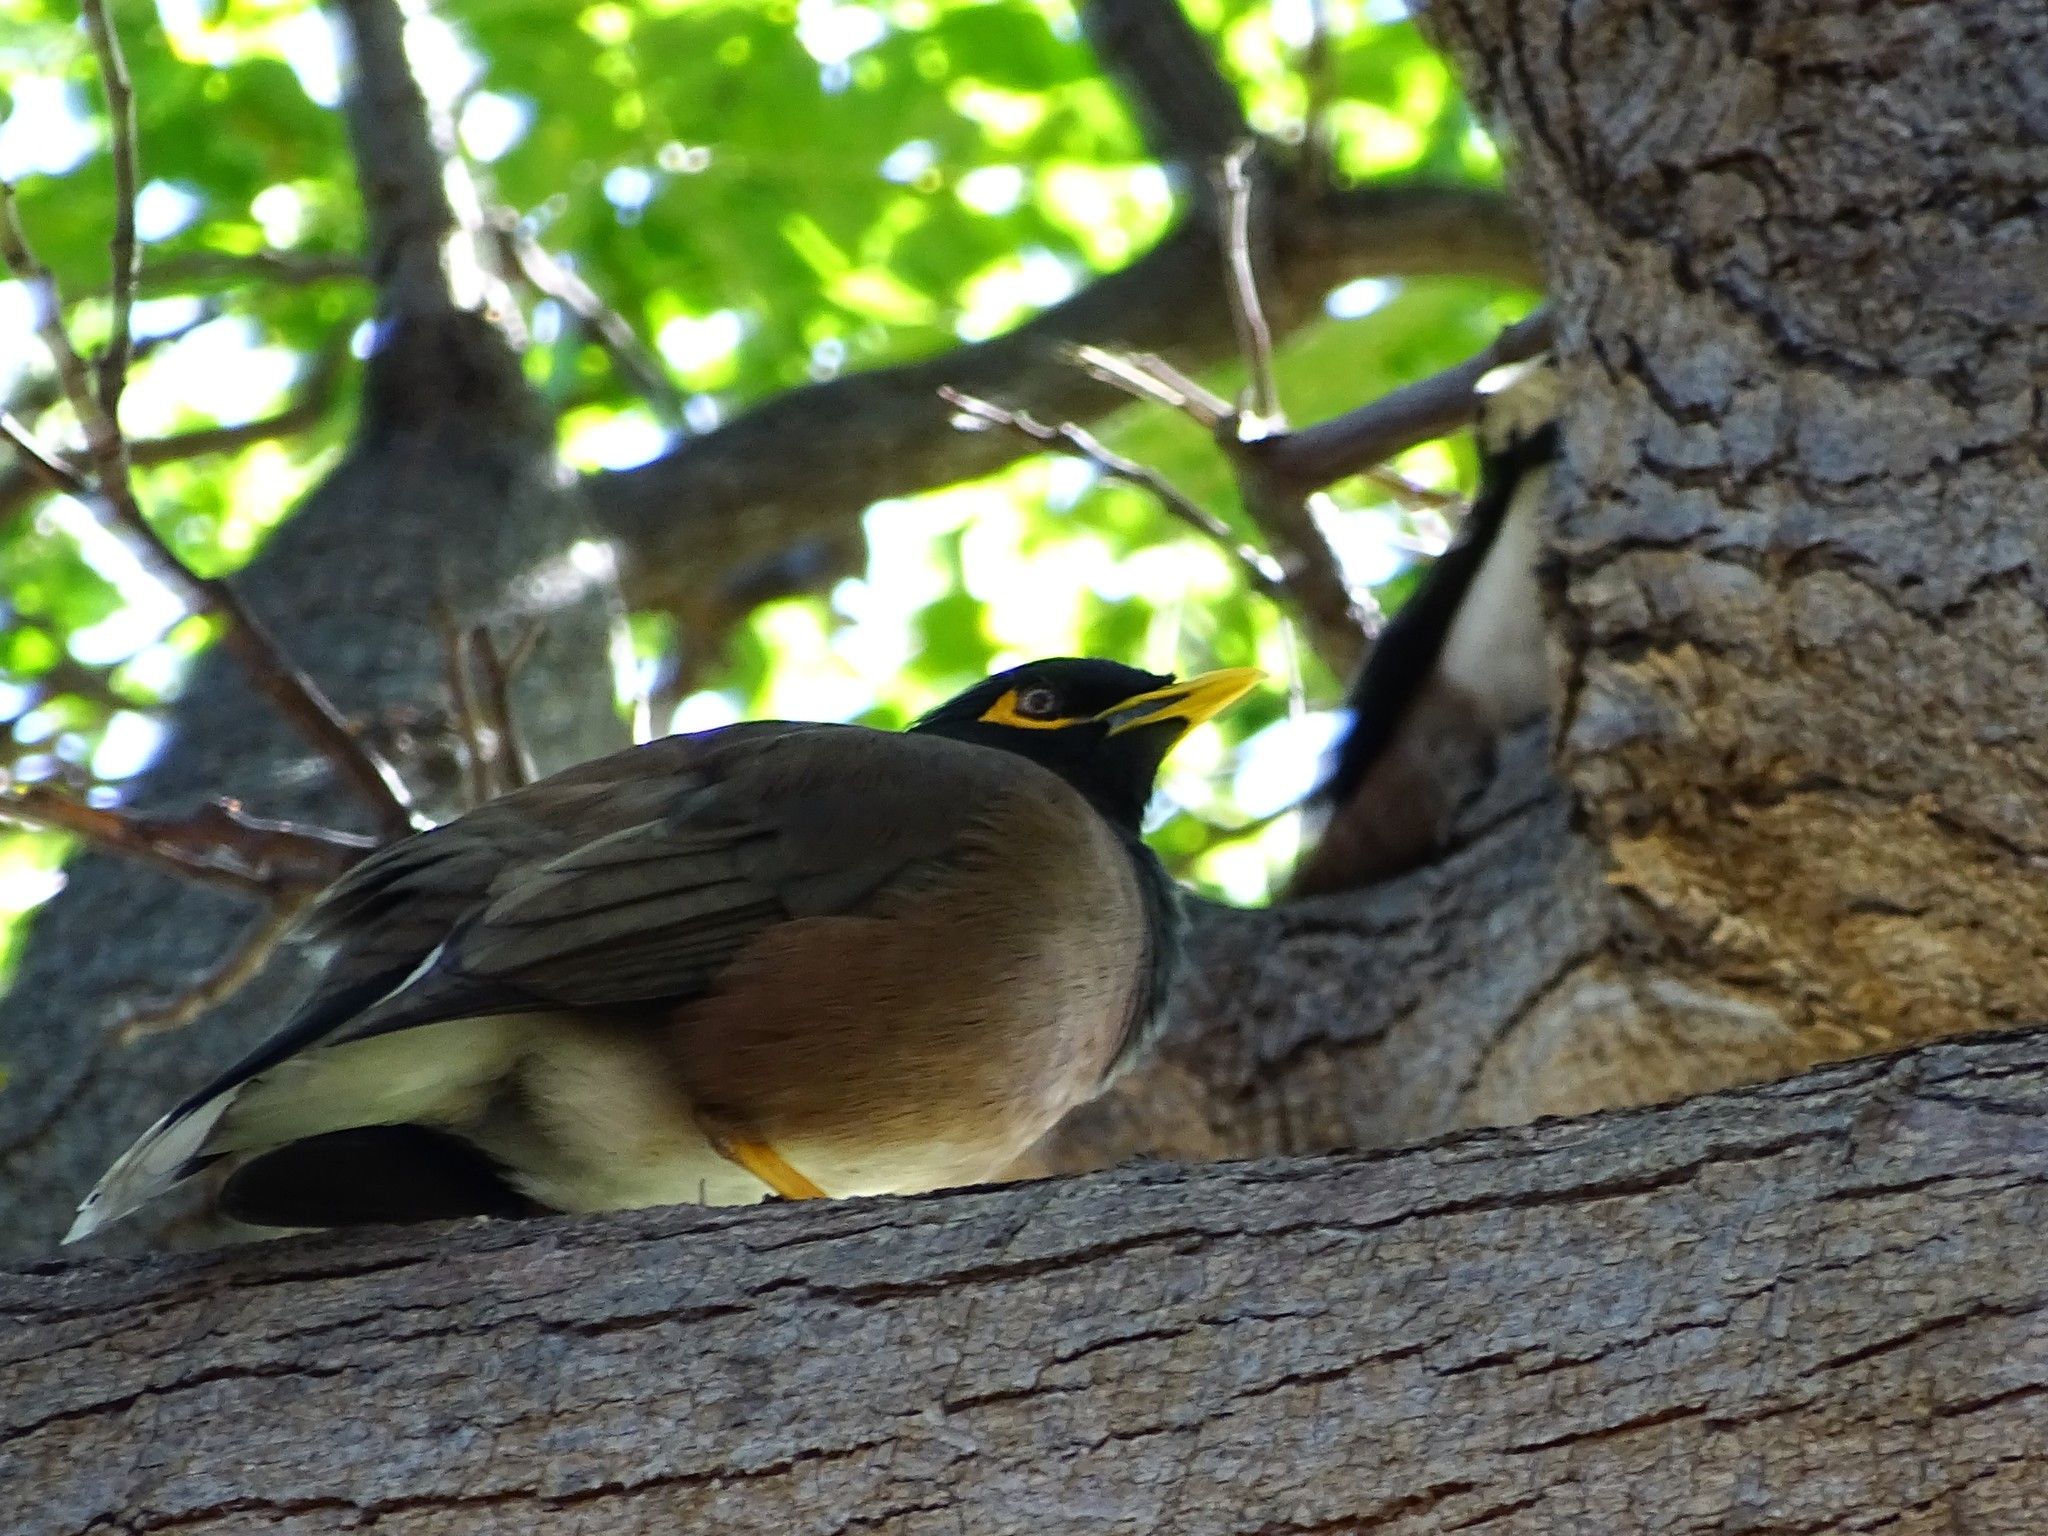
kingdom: Animalia
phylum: Chordata
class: Aves
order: Passeriformes
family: Sturnidae
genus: Acridotheres
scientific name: Acridotheres tristis
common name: Common myna
